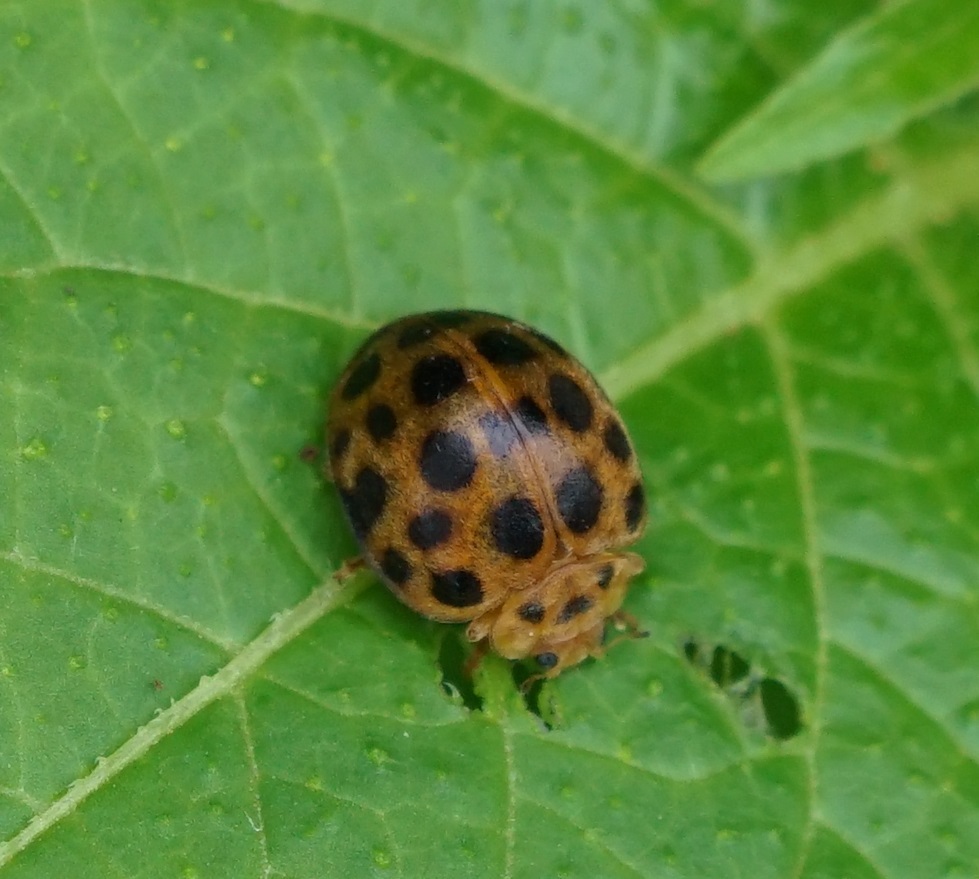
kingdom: Animalia
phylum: Arthropoda
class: Insecta
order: Coleoptera
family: Coccinellidae
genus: Henosepilachna
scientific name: Henosepilachna vigintioctopunctata
